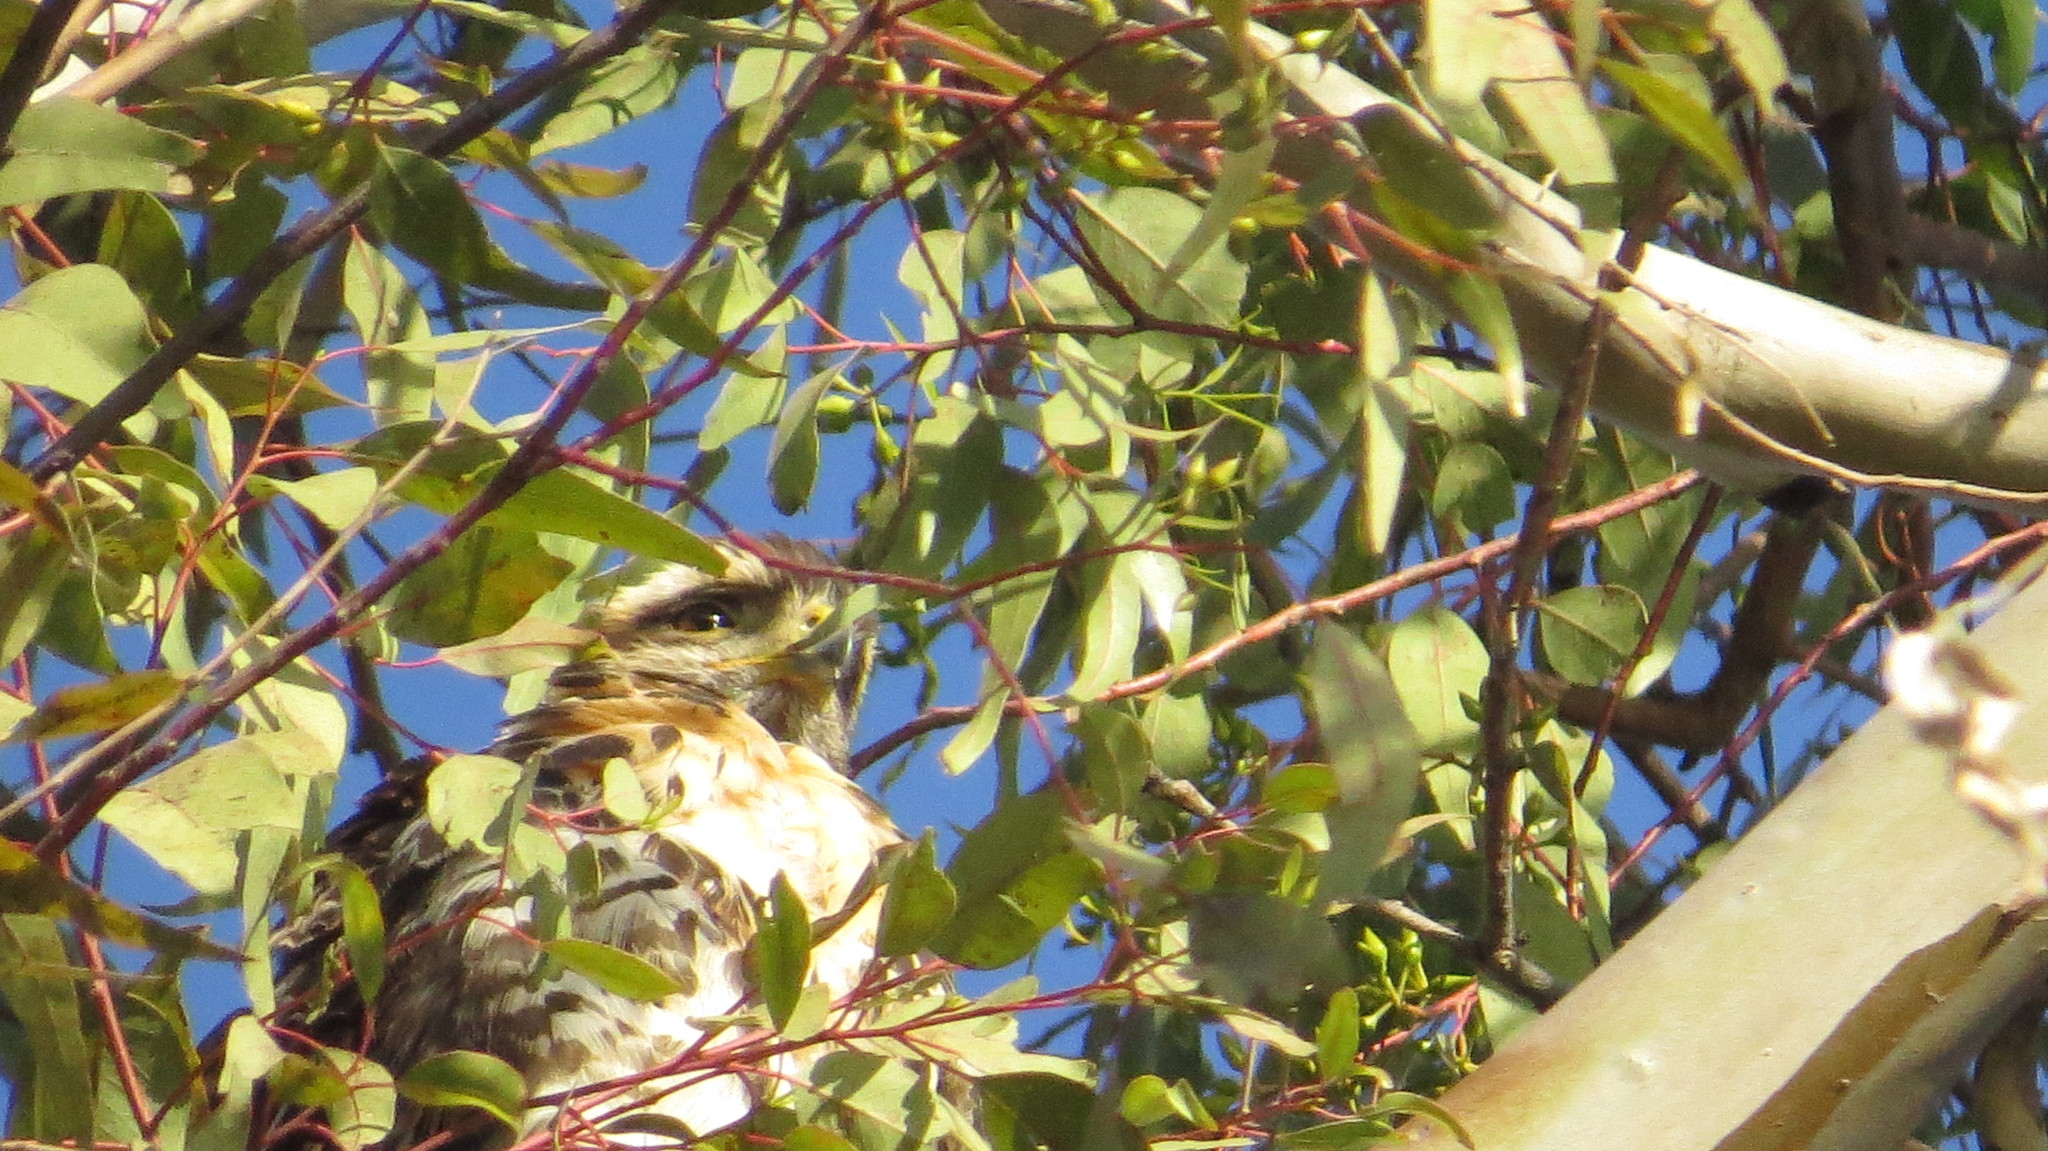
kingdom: Animalia
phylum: Chordata
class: Aves
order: Accipitriformes
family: Accipitridae
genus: Parabuteo
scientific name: Parabuteo unicinctus
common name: Harris's hawk
